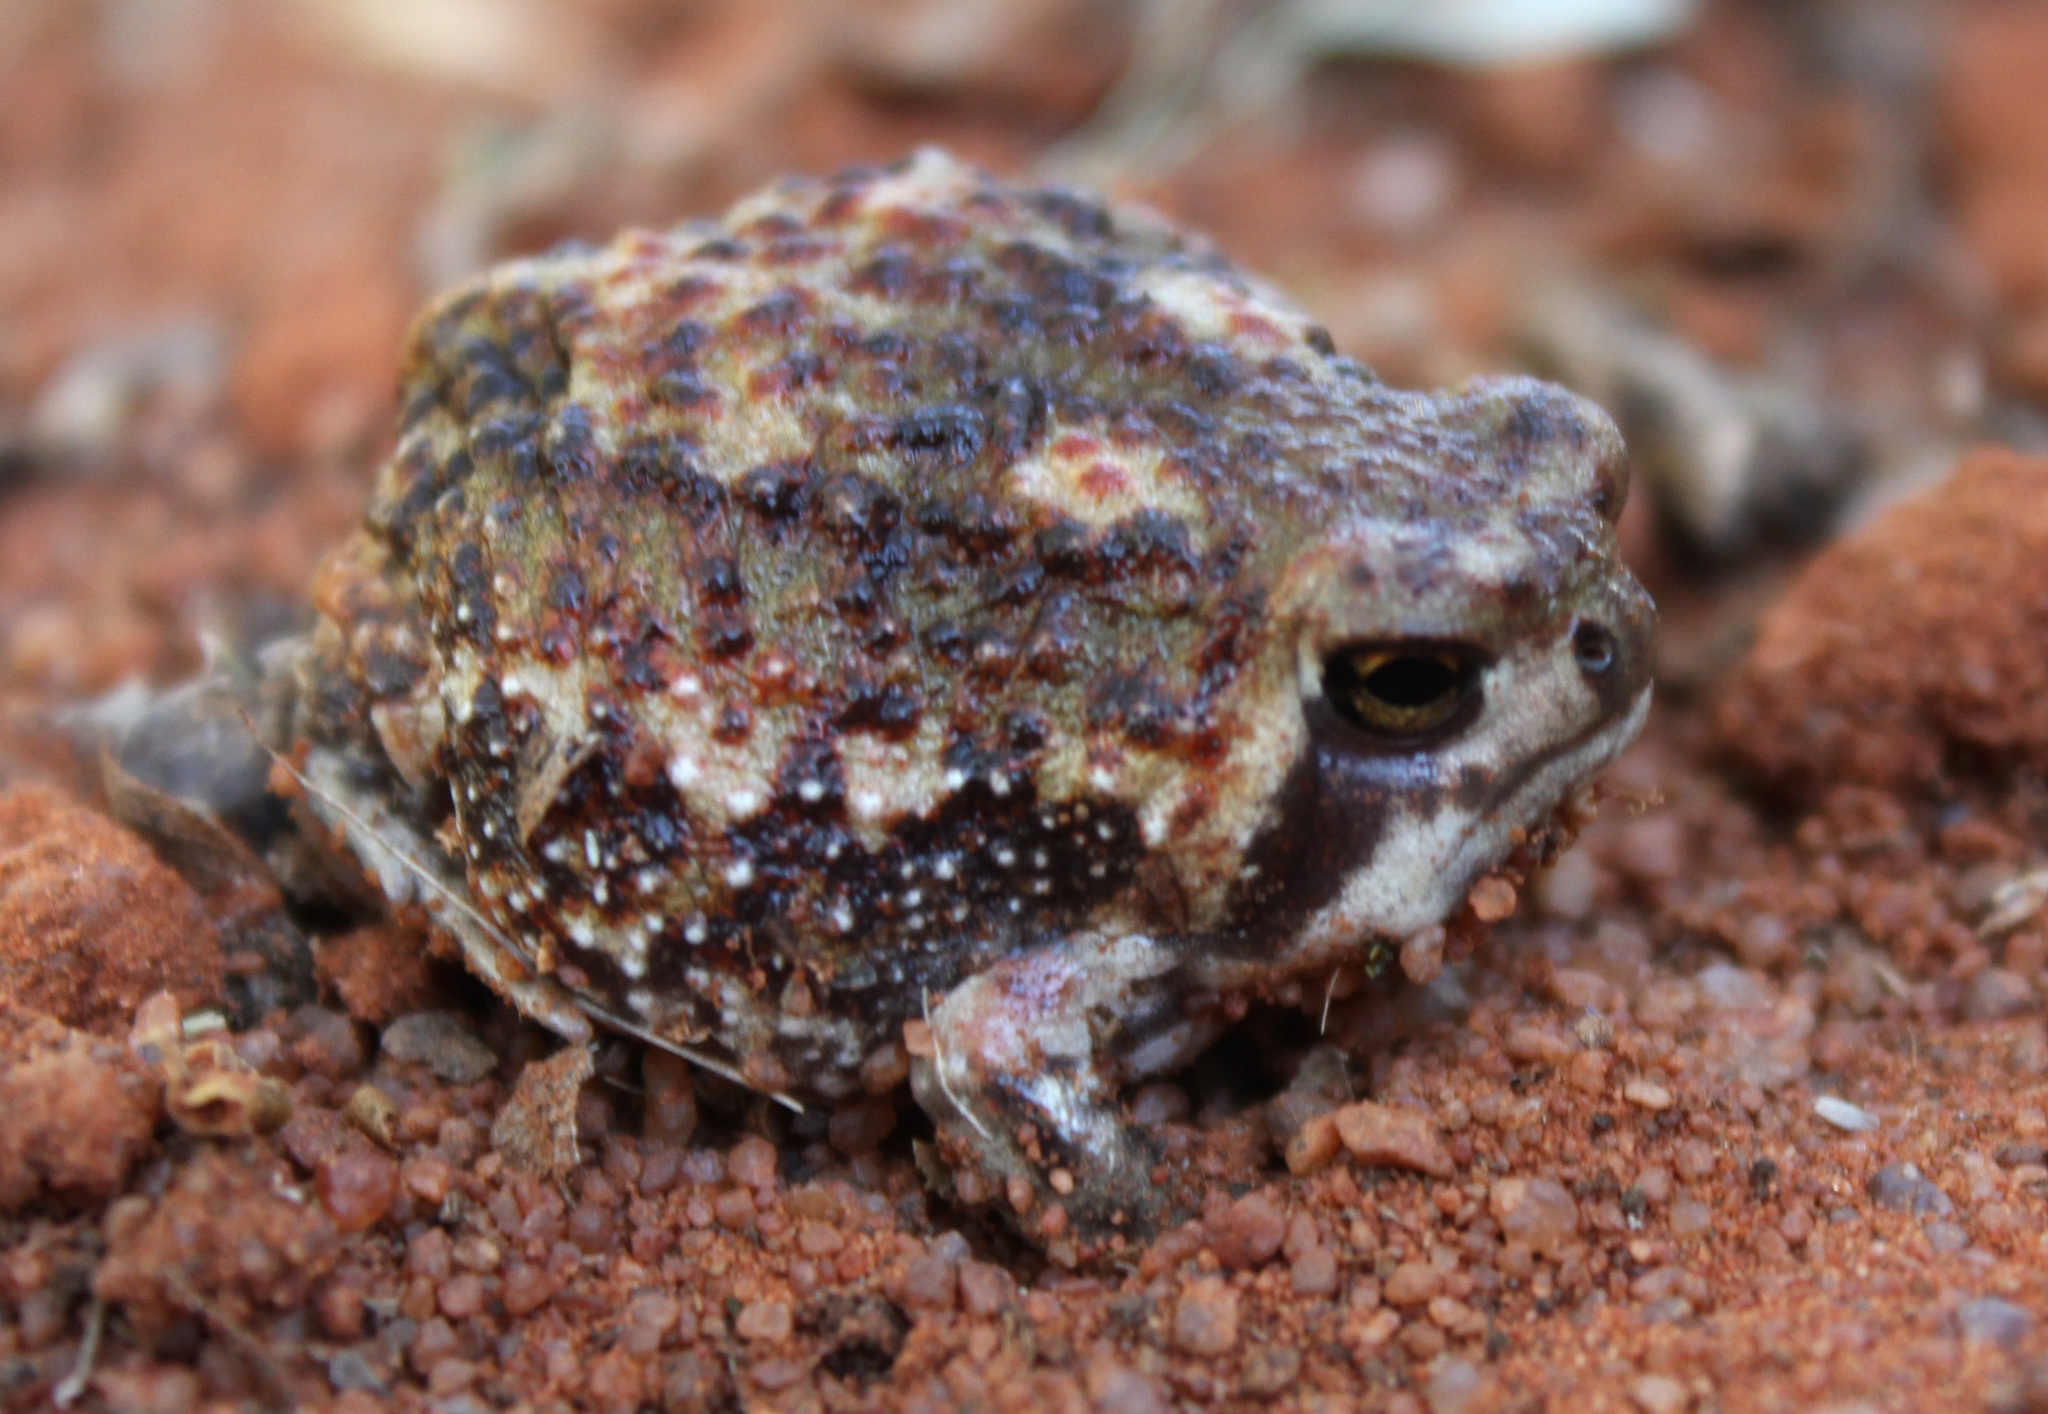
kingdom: Animalia
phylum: Chordata
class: Amphibia
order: Anura
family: Brevicipitidae
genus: Breviceps
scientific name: Breviceps adspersus
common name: Common rain frog
